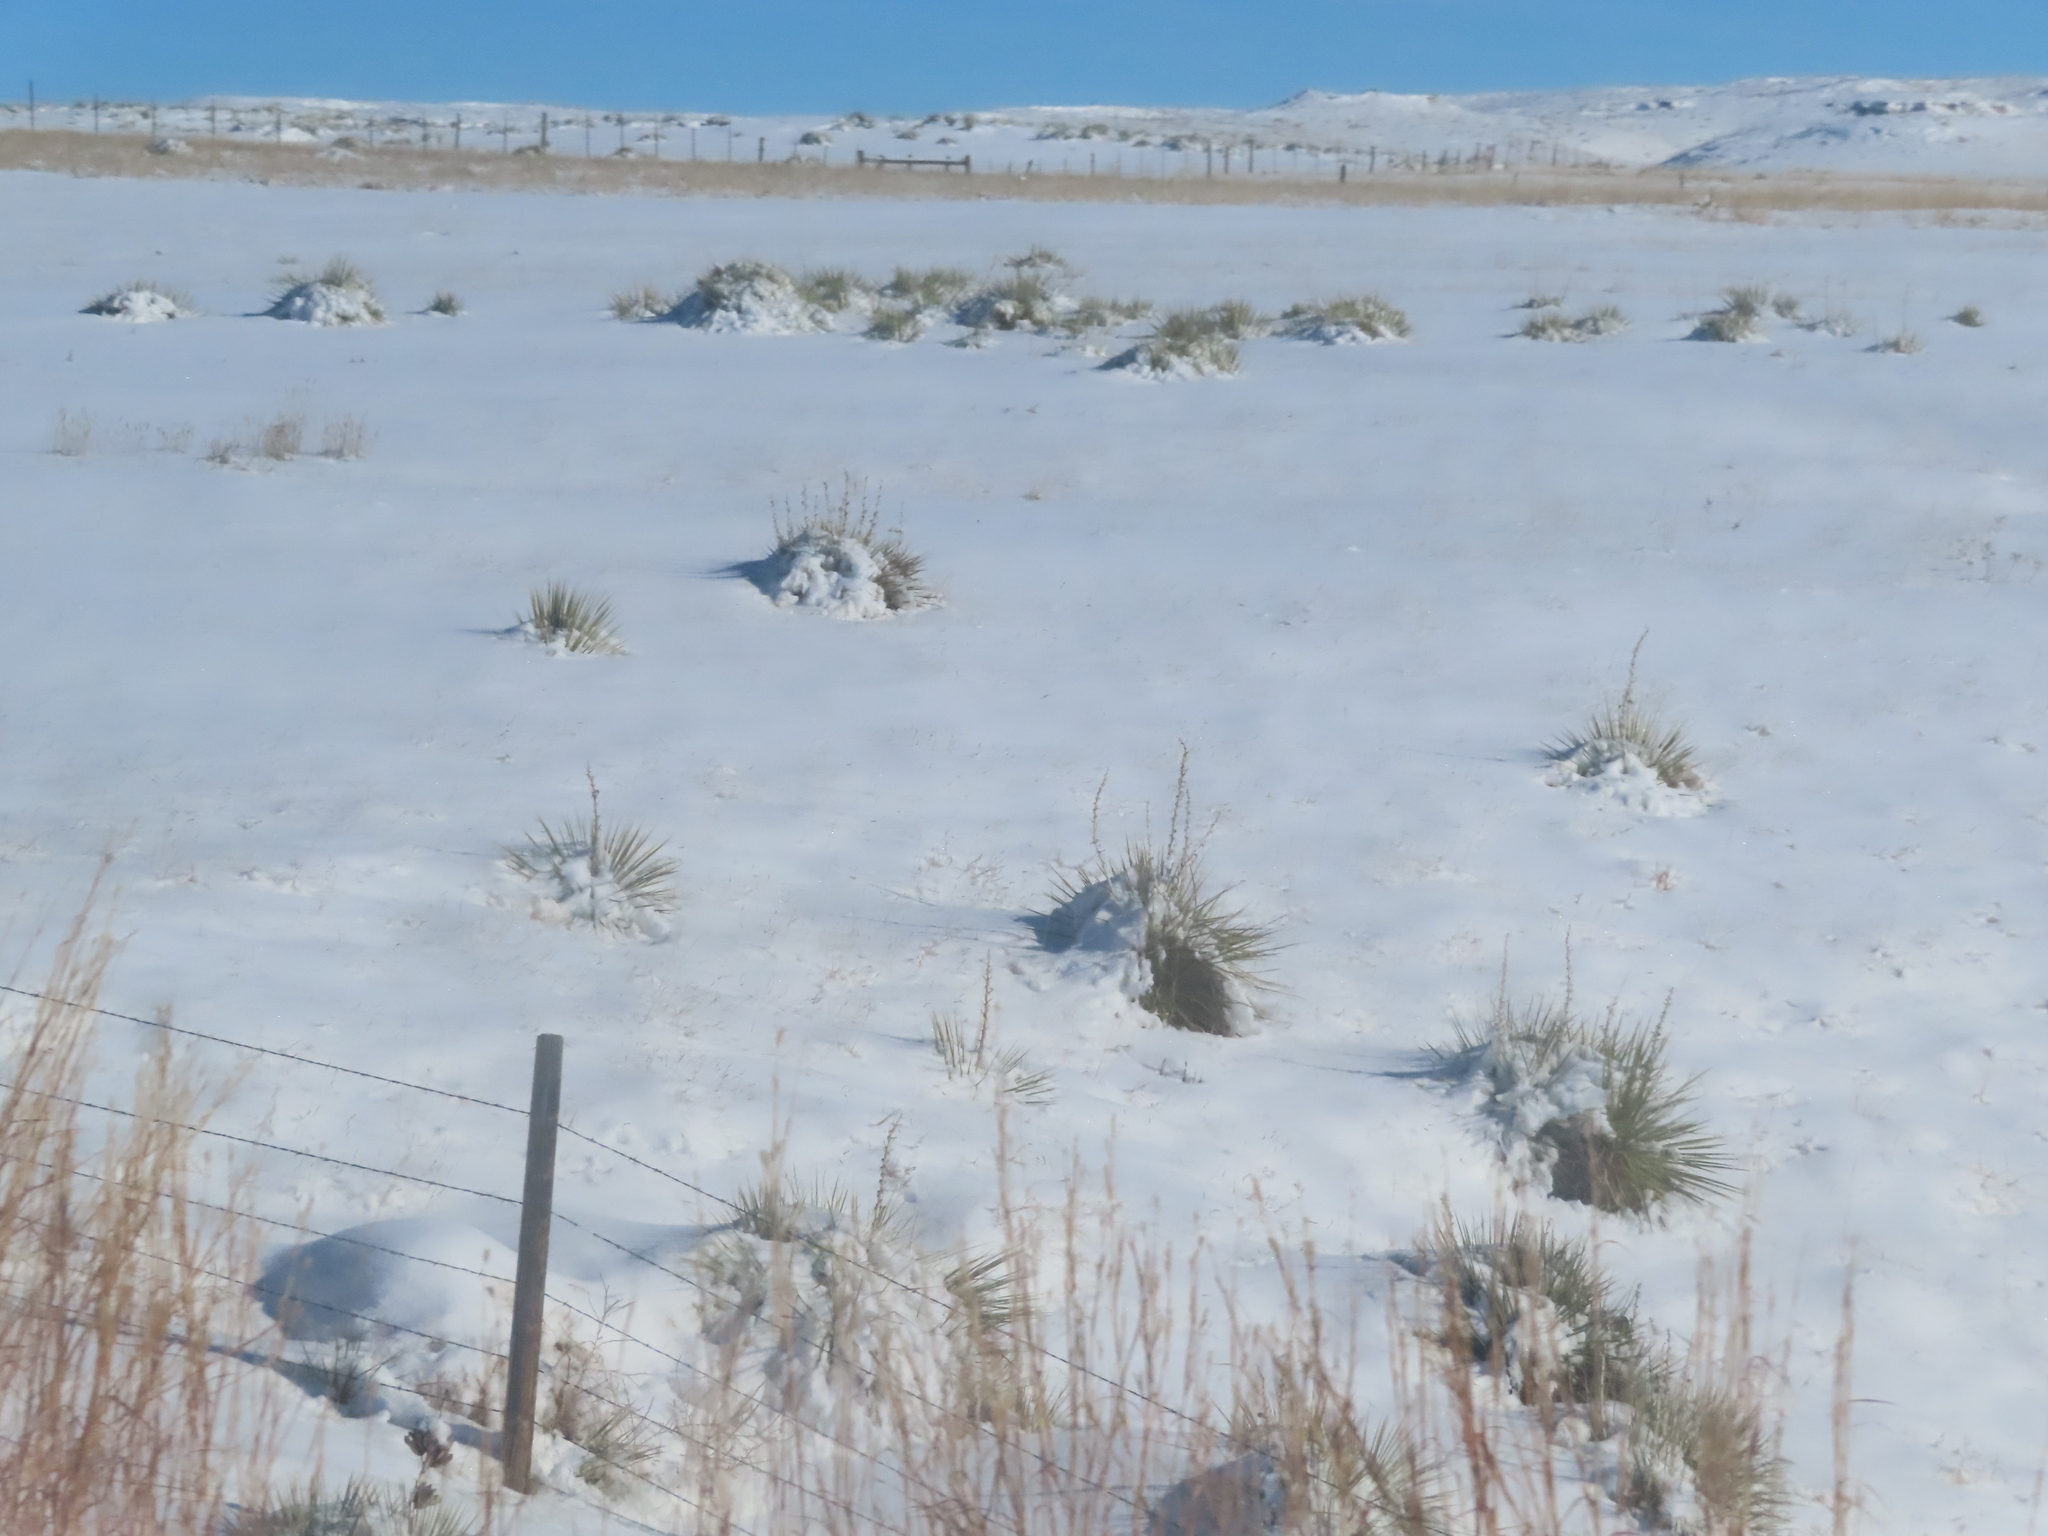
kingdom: Plantae
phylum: Tracheophyta
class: Liliopsida
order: Asparagales
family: Asparagaceae
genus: Yucca
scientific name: Yucca glauca
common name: Great plains yucca
